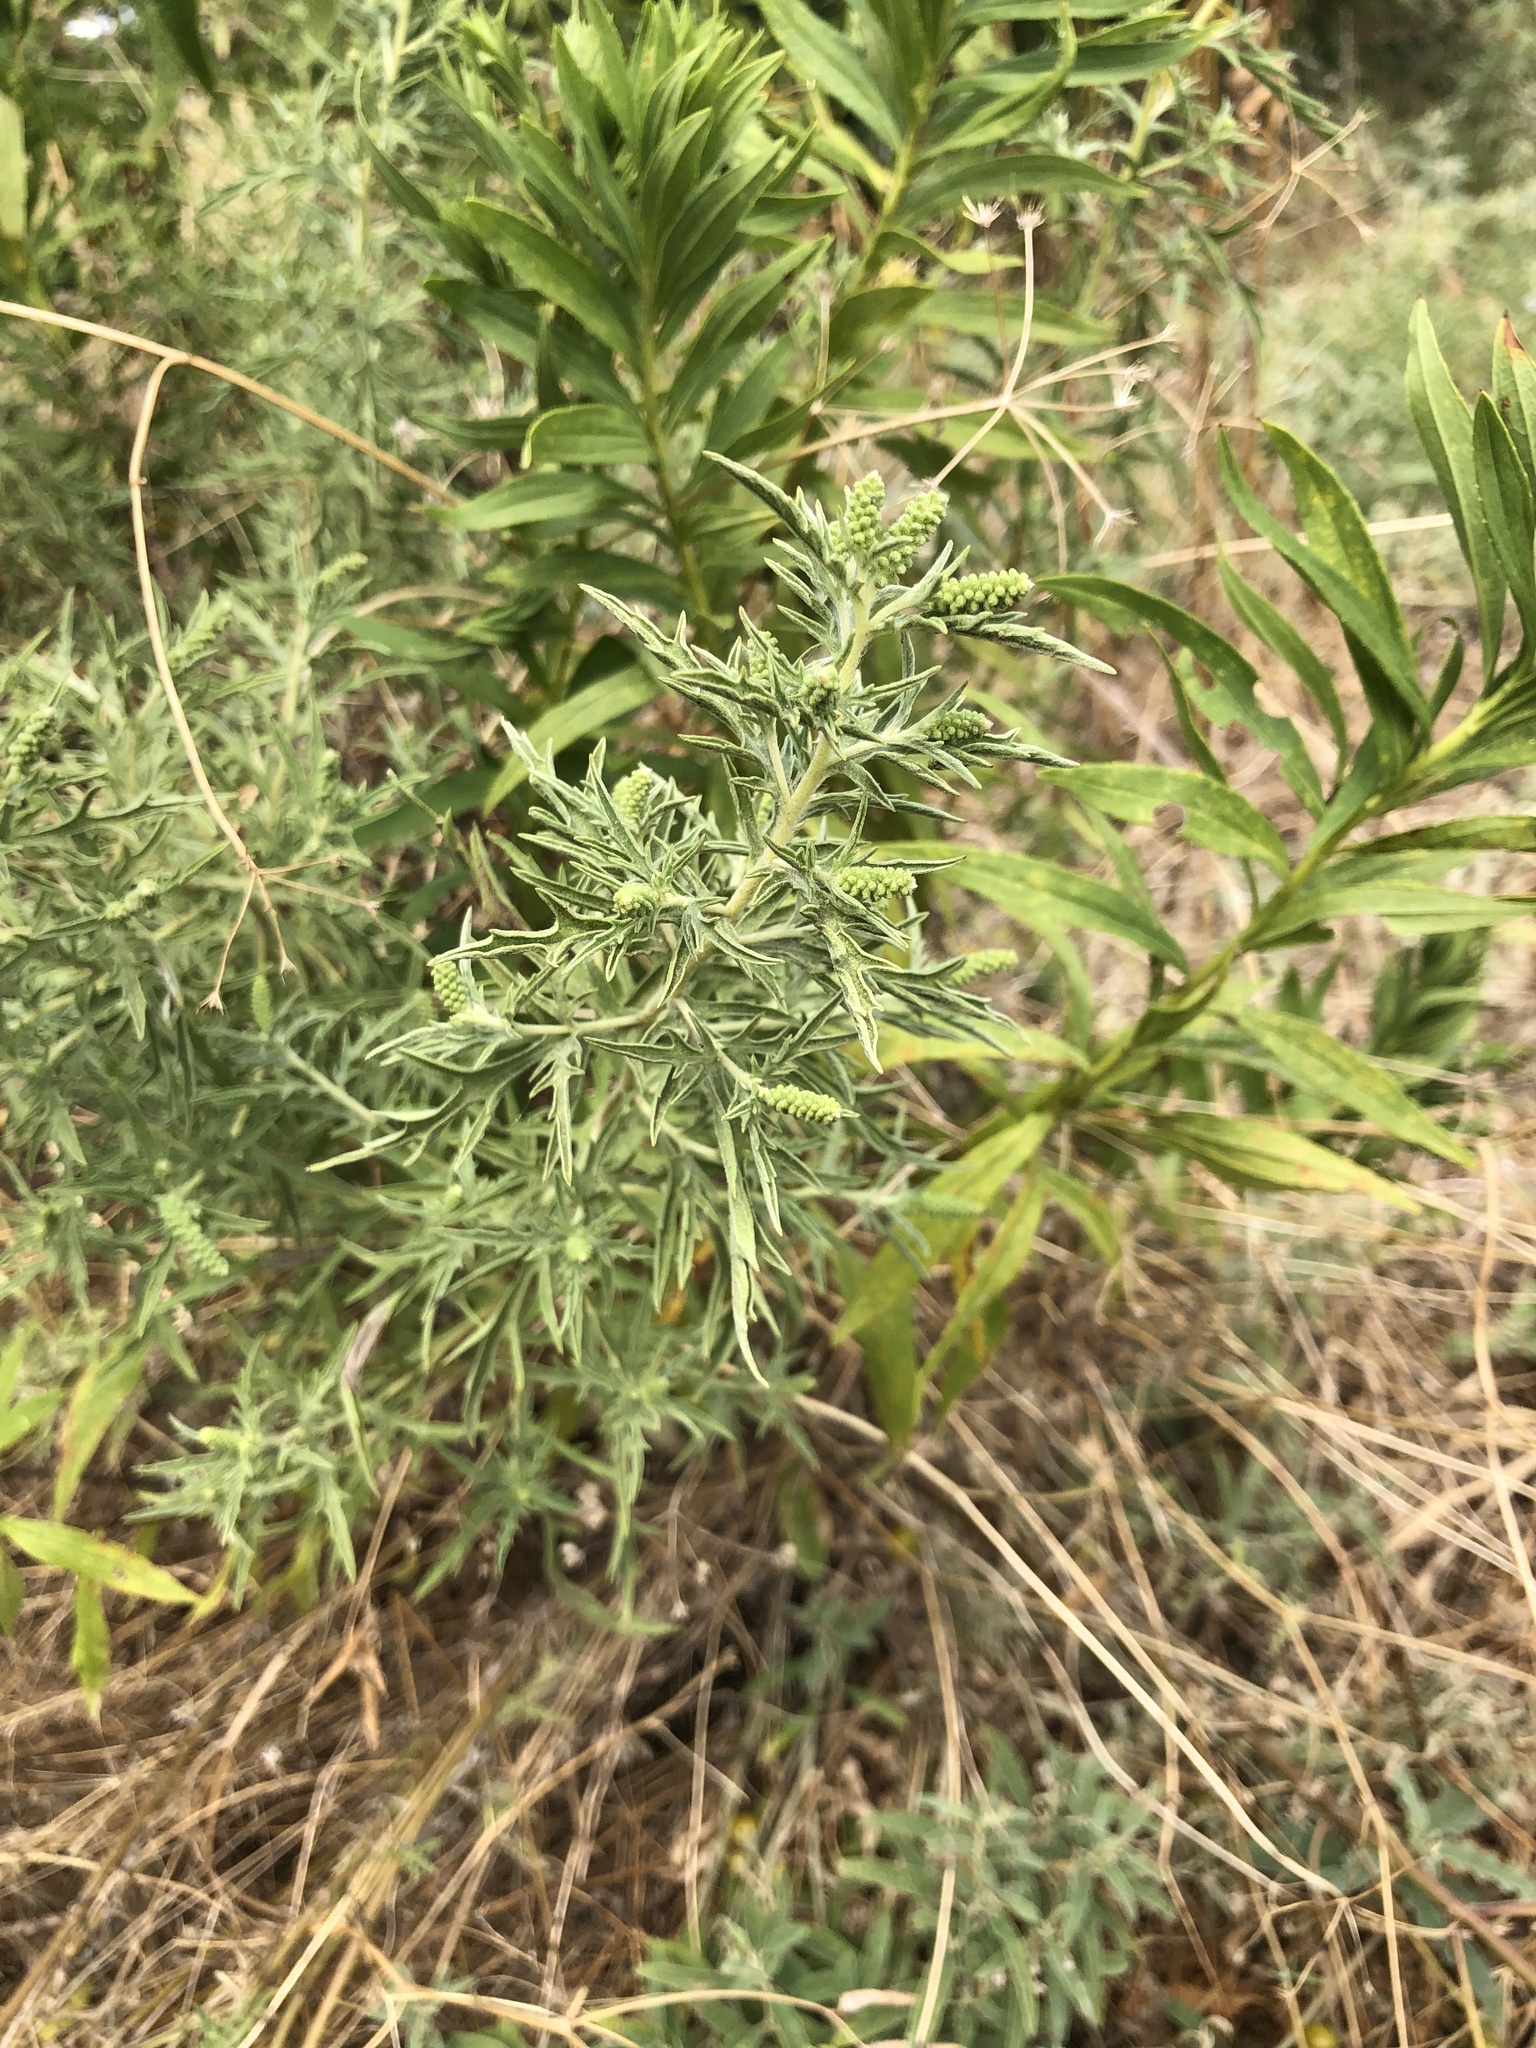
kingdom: Plantae
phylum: Tracheophyta
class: Magnoliopsida
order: Asterales
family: Asteraceae
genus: Ambrosia
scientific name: Ambrosia psilostachya
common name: Perennial ragweed
